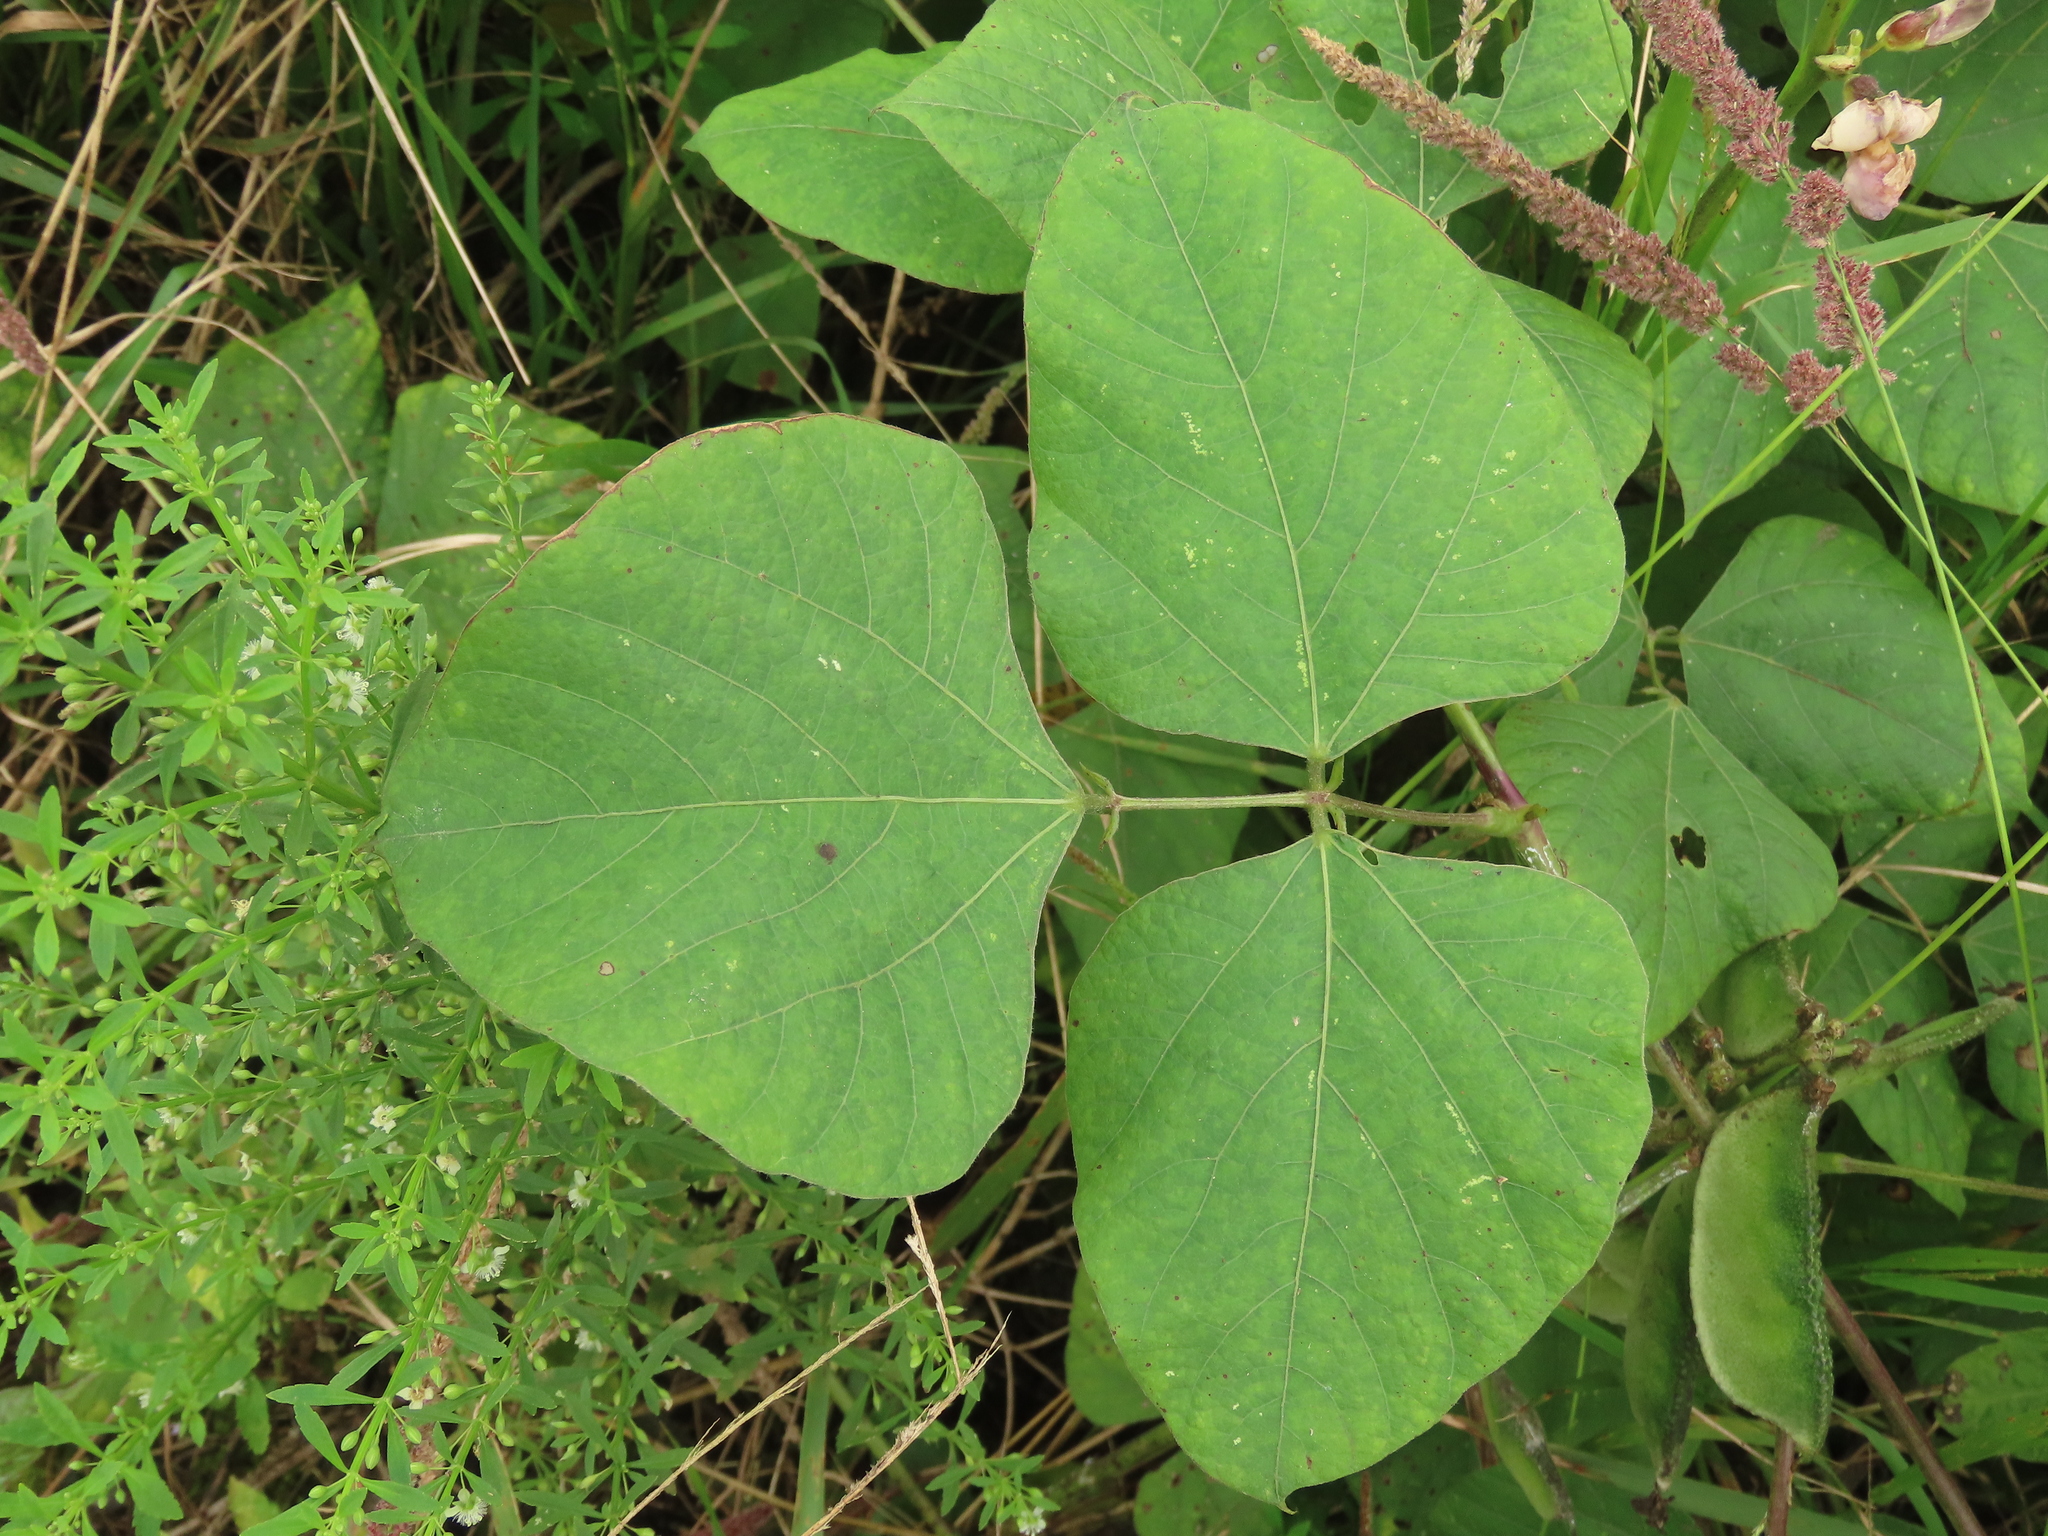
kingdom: Plantae
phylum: Tracheophyta
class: Magnoliopsida
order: Fabales
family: Fabaceae
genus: Lablab
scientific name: Lablab purpureus
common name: Lablab-bean
